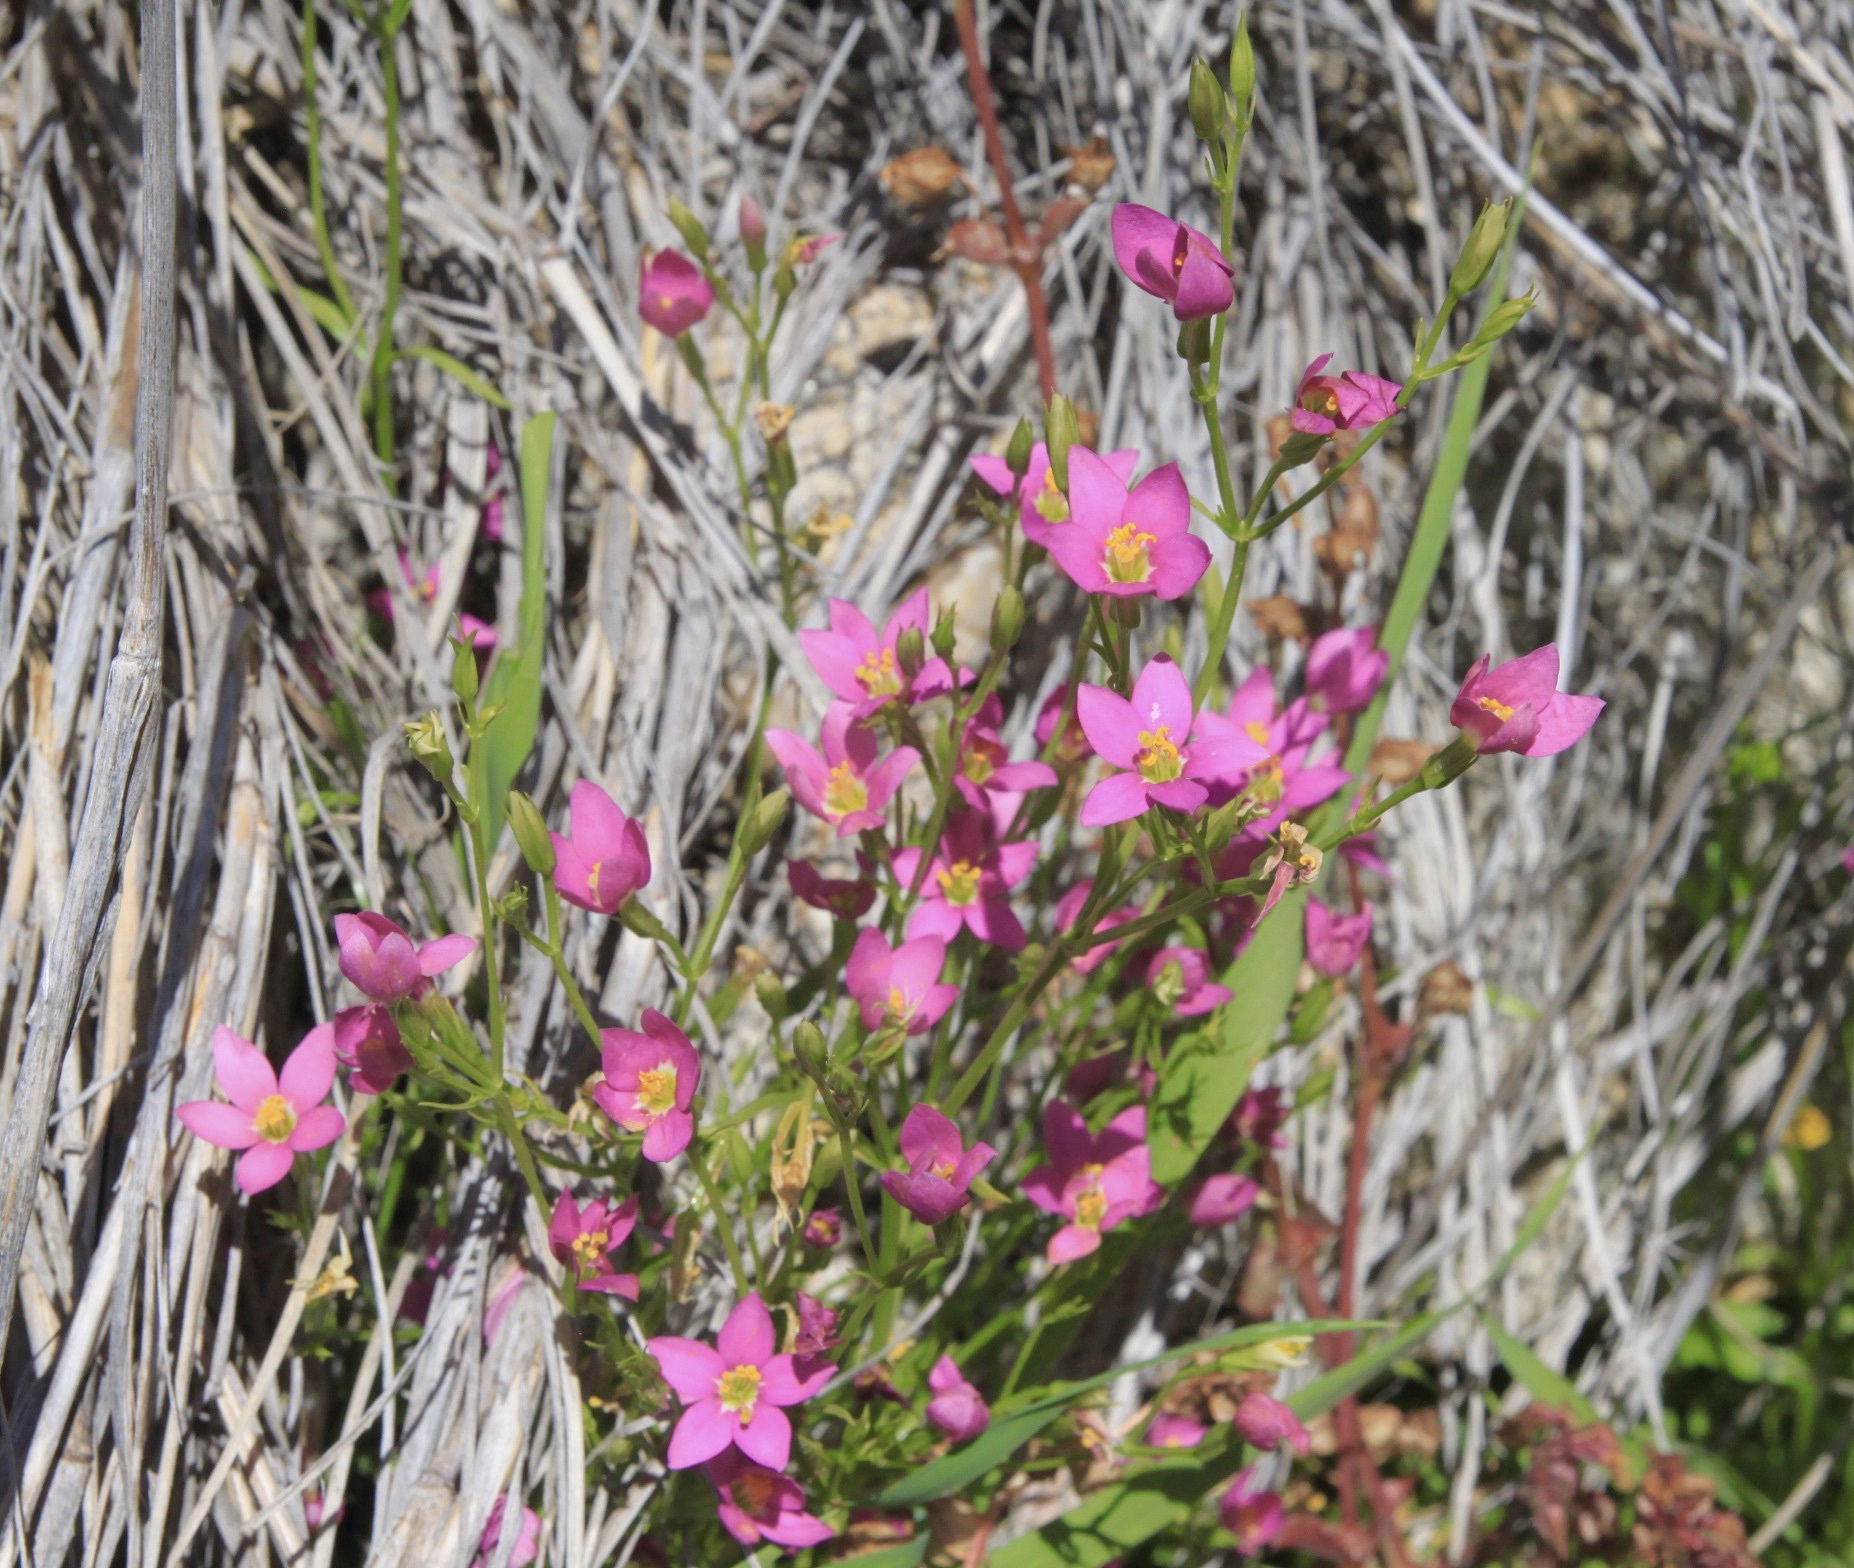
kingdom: Plantae
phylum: Tracheophyta
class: Magnoliopsida
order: Gentianales
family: Gentianaceae
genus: Zeltnera
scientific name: Zeltnera arizonica
